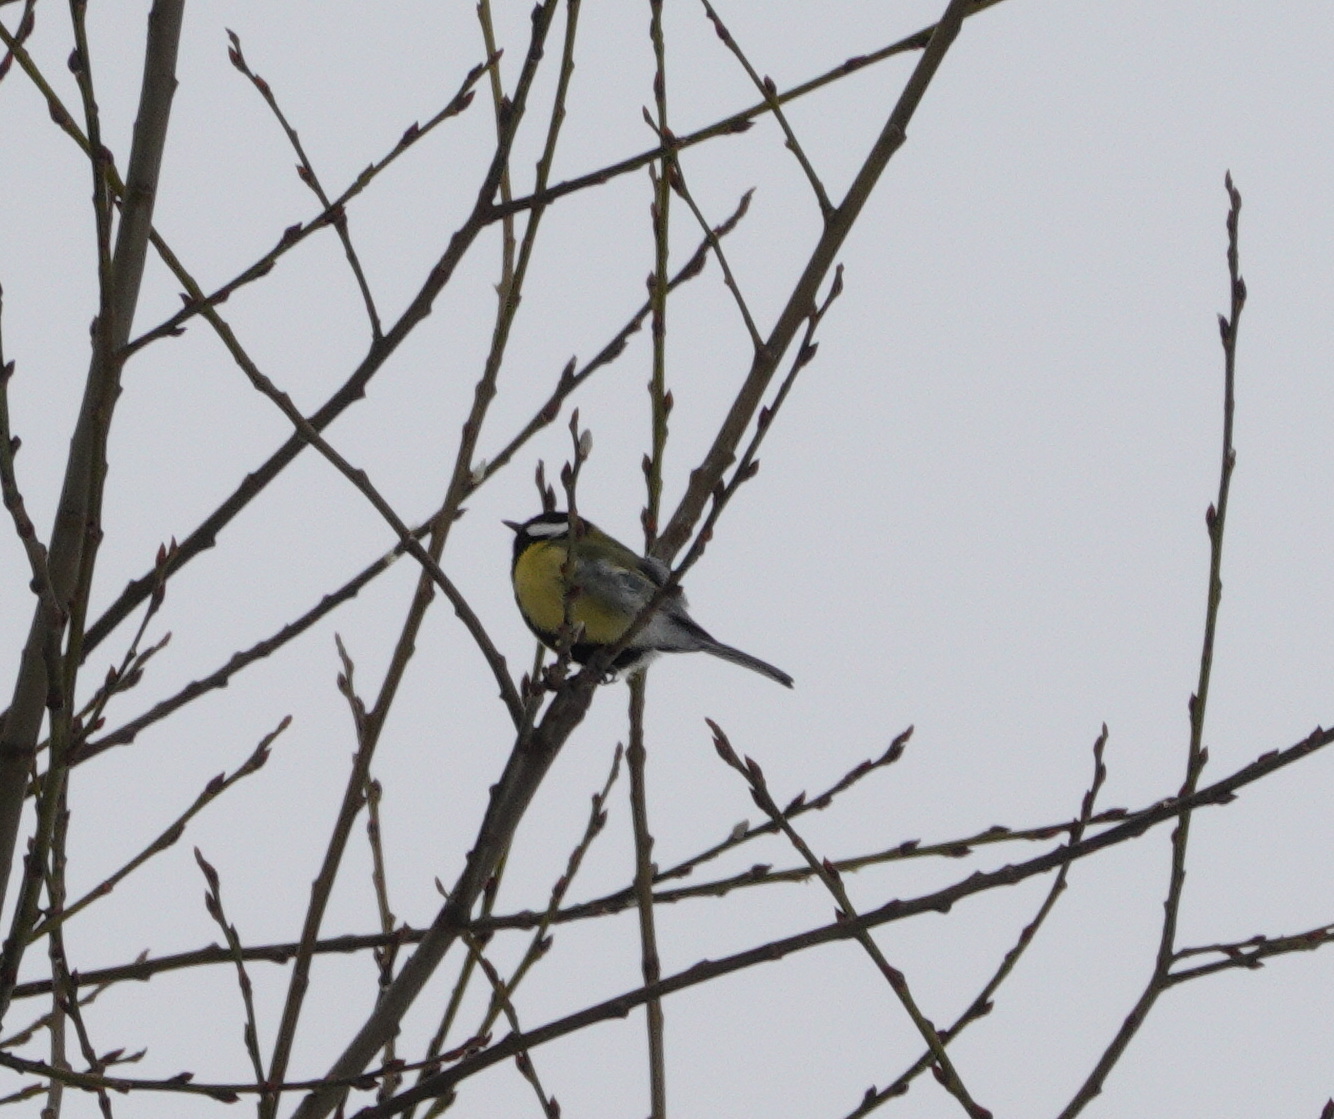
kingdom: Animalia
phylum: Chordata
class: Aves
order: Passeriformes
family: Paridae
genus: Parus
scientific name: Parus major
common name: Great tit
